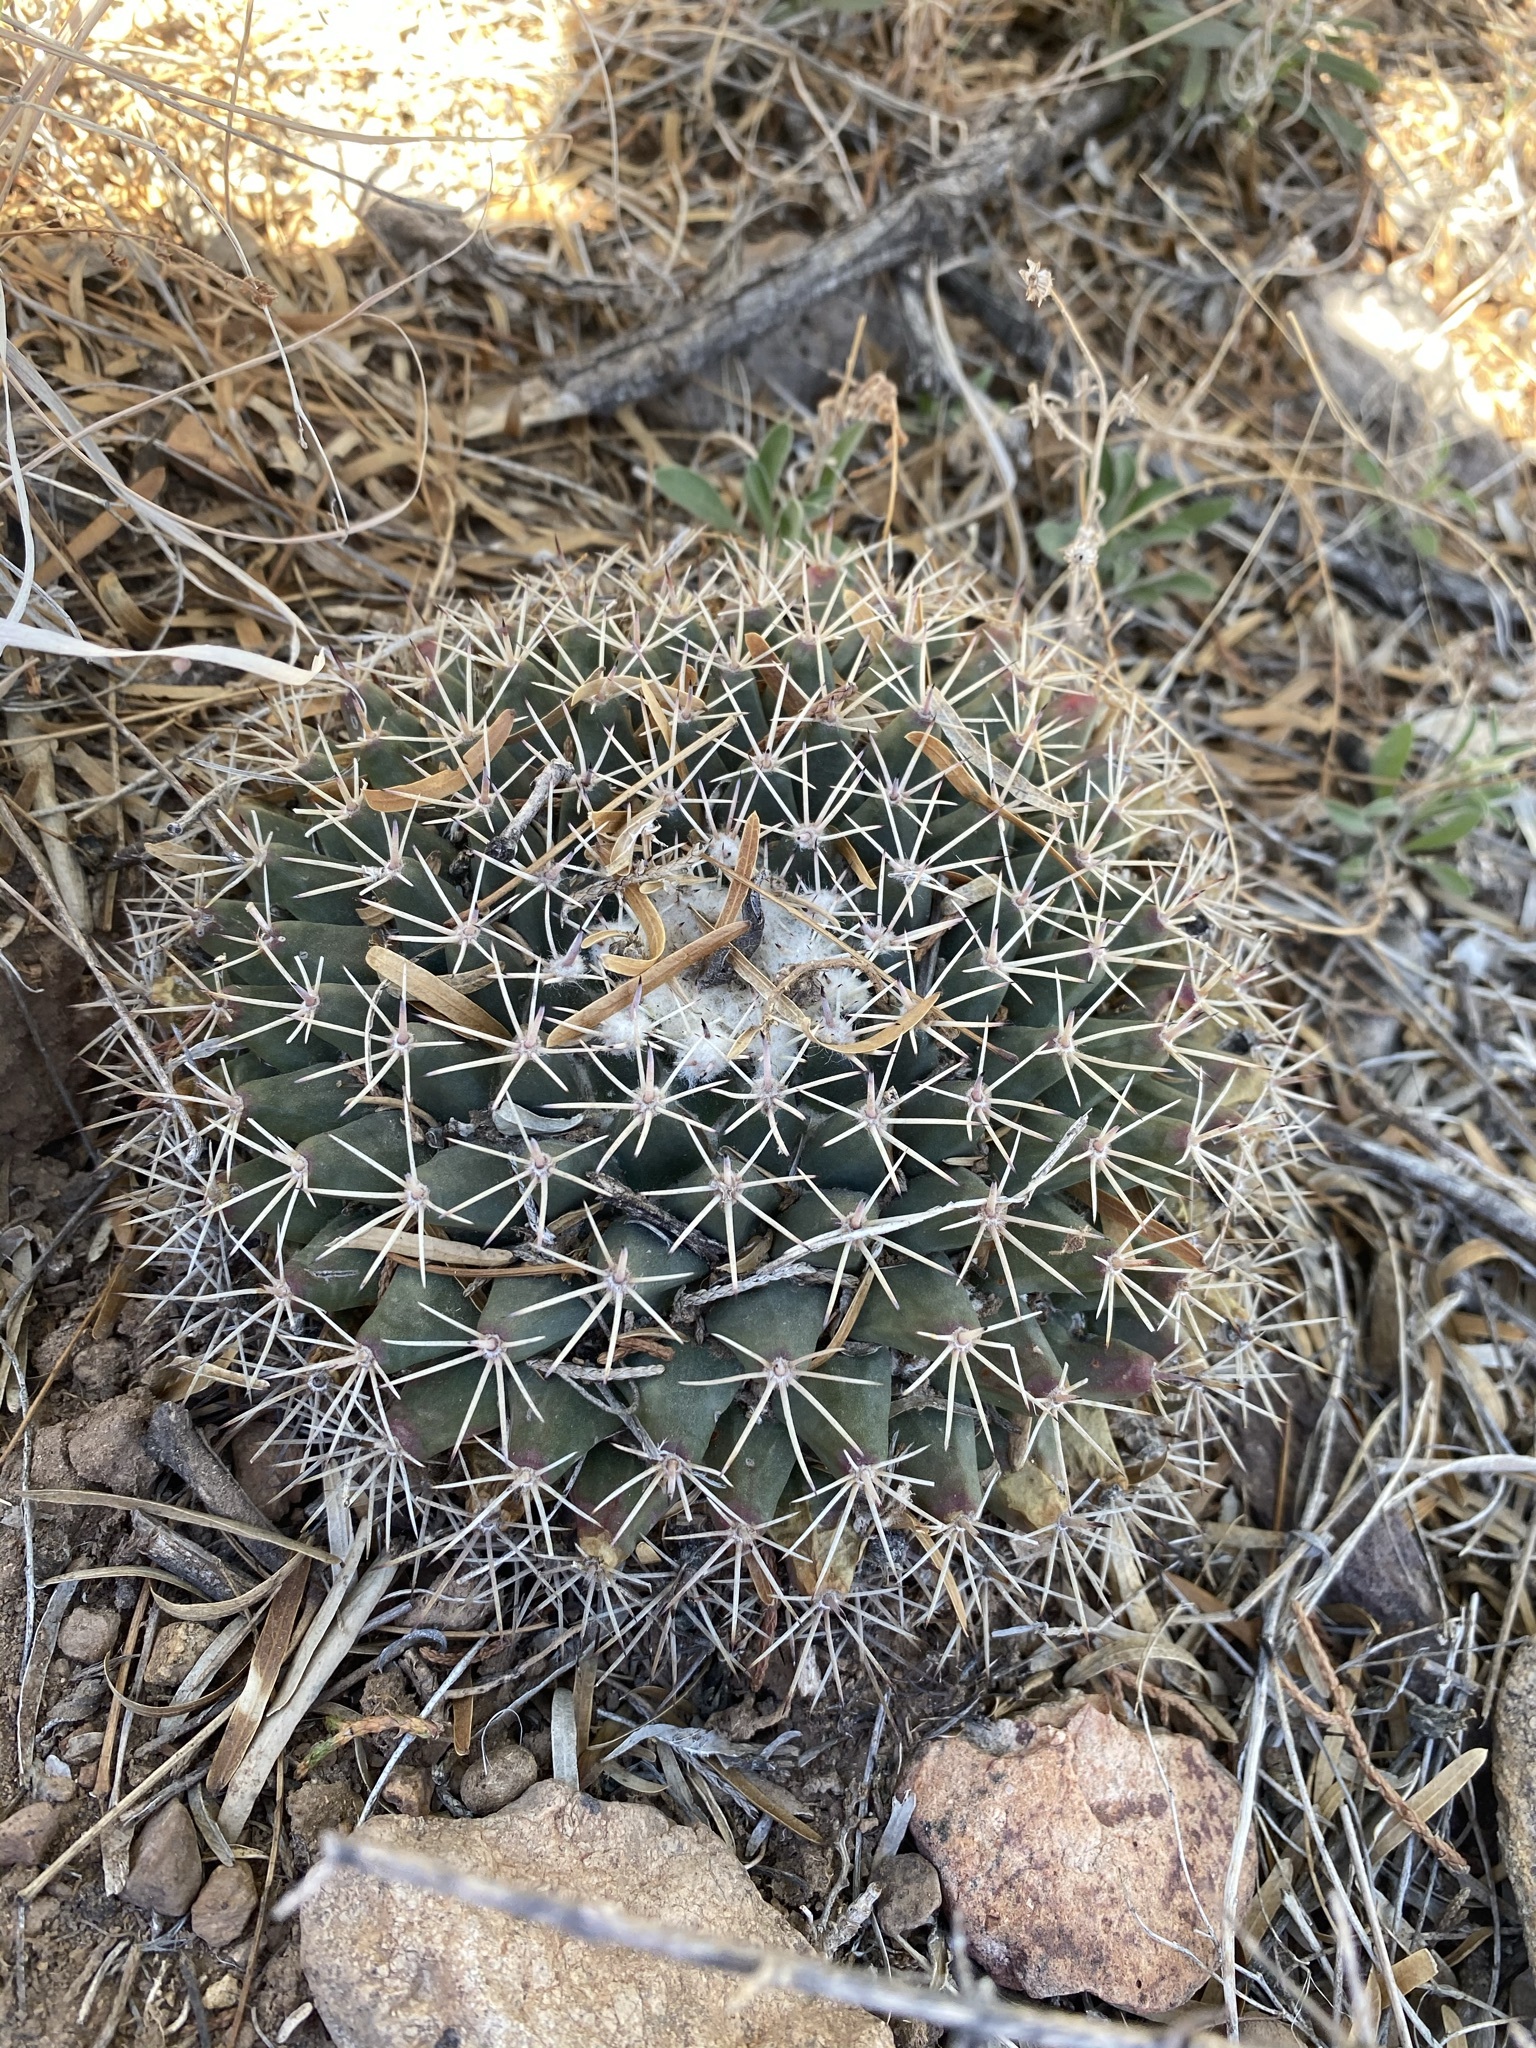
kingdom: Plantae
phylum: Tracheophyta
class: Magnoliopsida
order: Caryophyllales
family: Cactaceae
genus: Mammillaria
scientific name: Mammillaria heyderi
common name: Little nipple cactus
